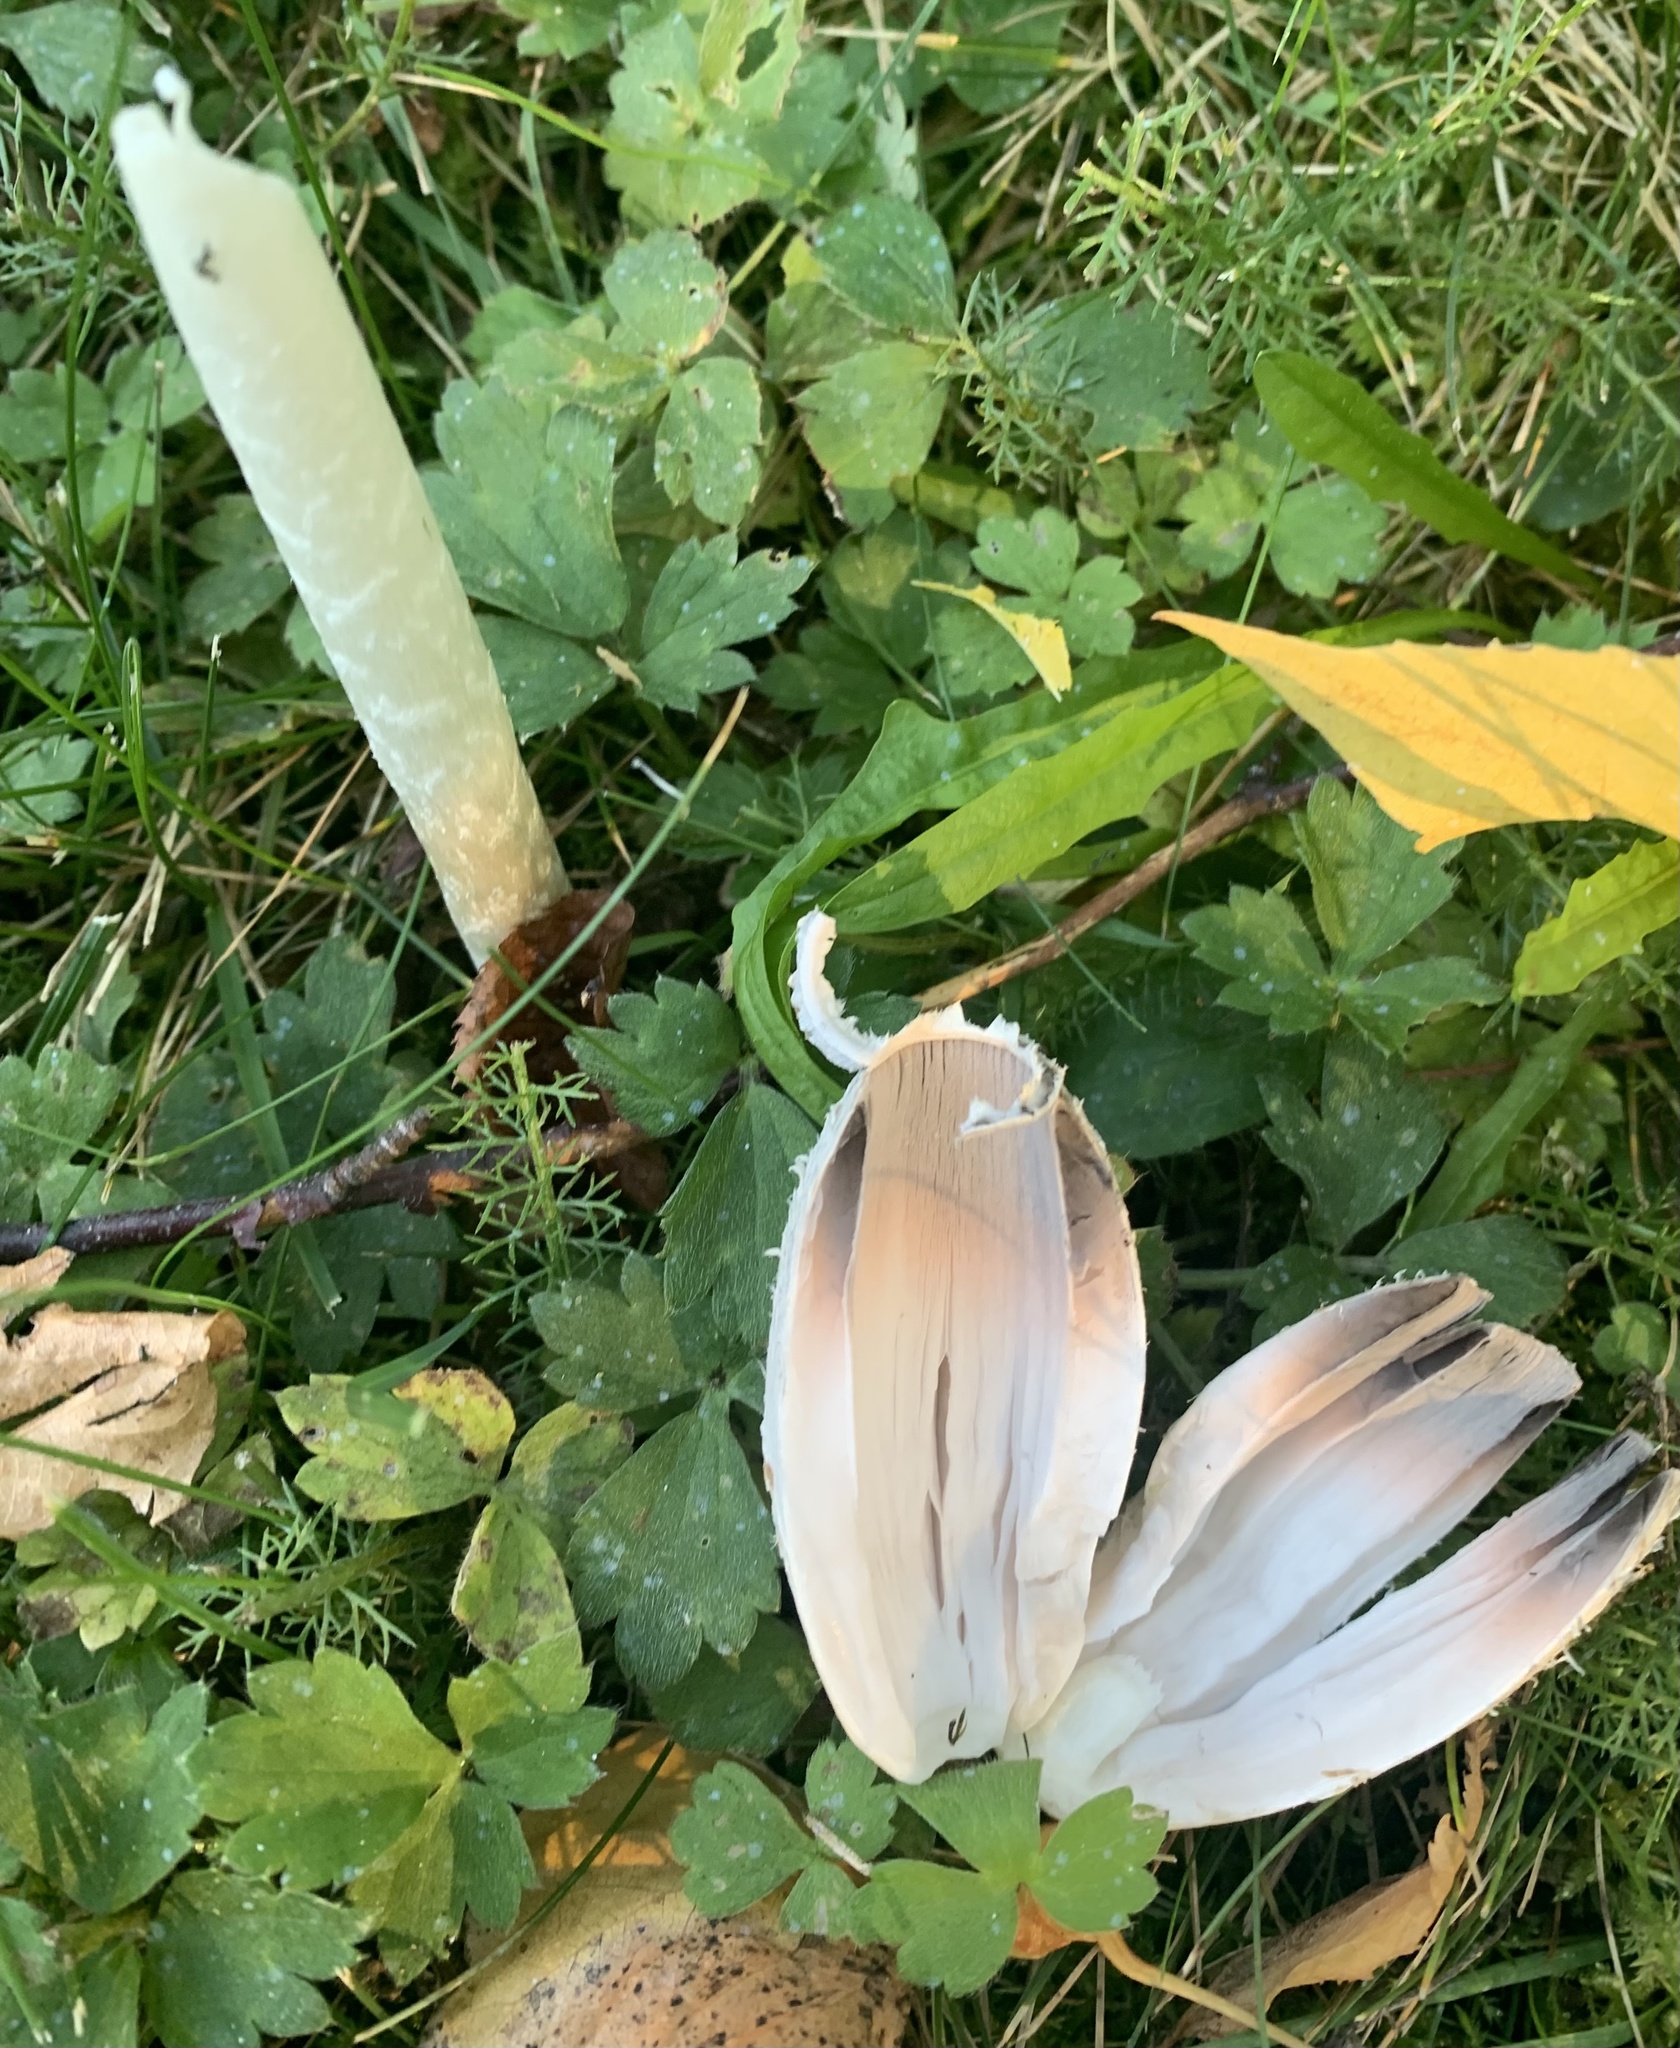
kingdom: Fungi
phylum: Basidiomycota
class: Agaricomycetes
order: Agaricales
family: Agaricaceae
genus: Coprinus
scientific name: Coprinus comatus
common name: Lawyer's wig
